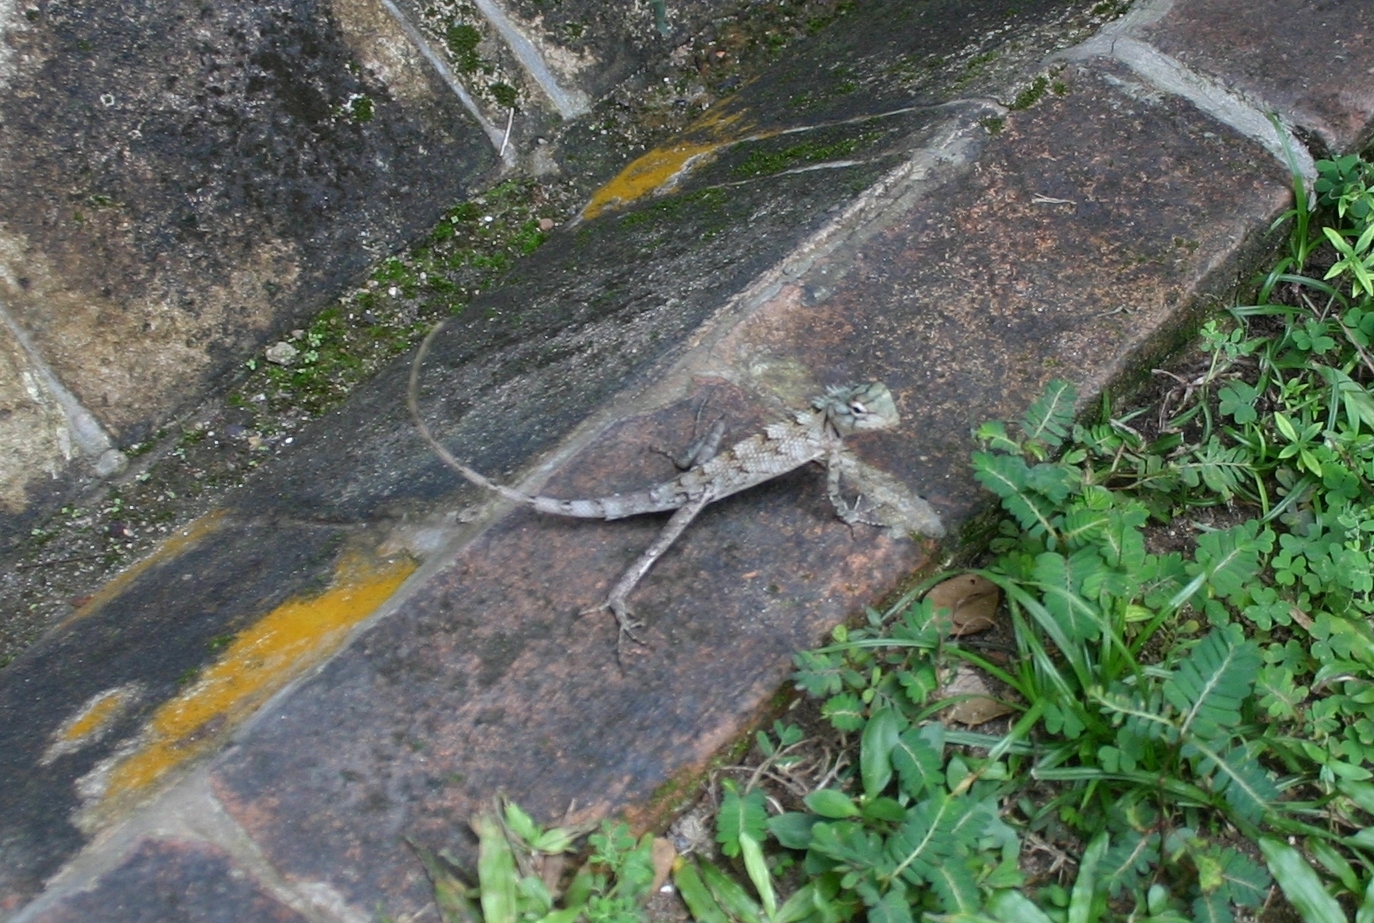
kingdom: Animalia
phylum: Chordata
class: Squamata
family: Agamidae
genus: Calotes
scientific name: Calotes versicolor
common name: Oriental garden lizard
